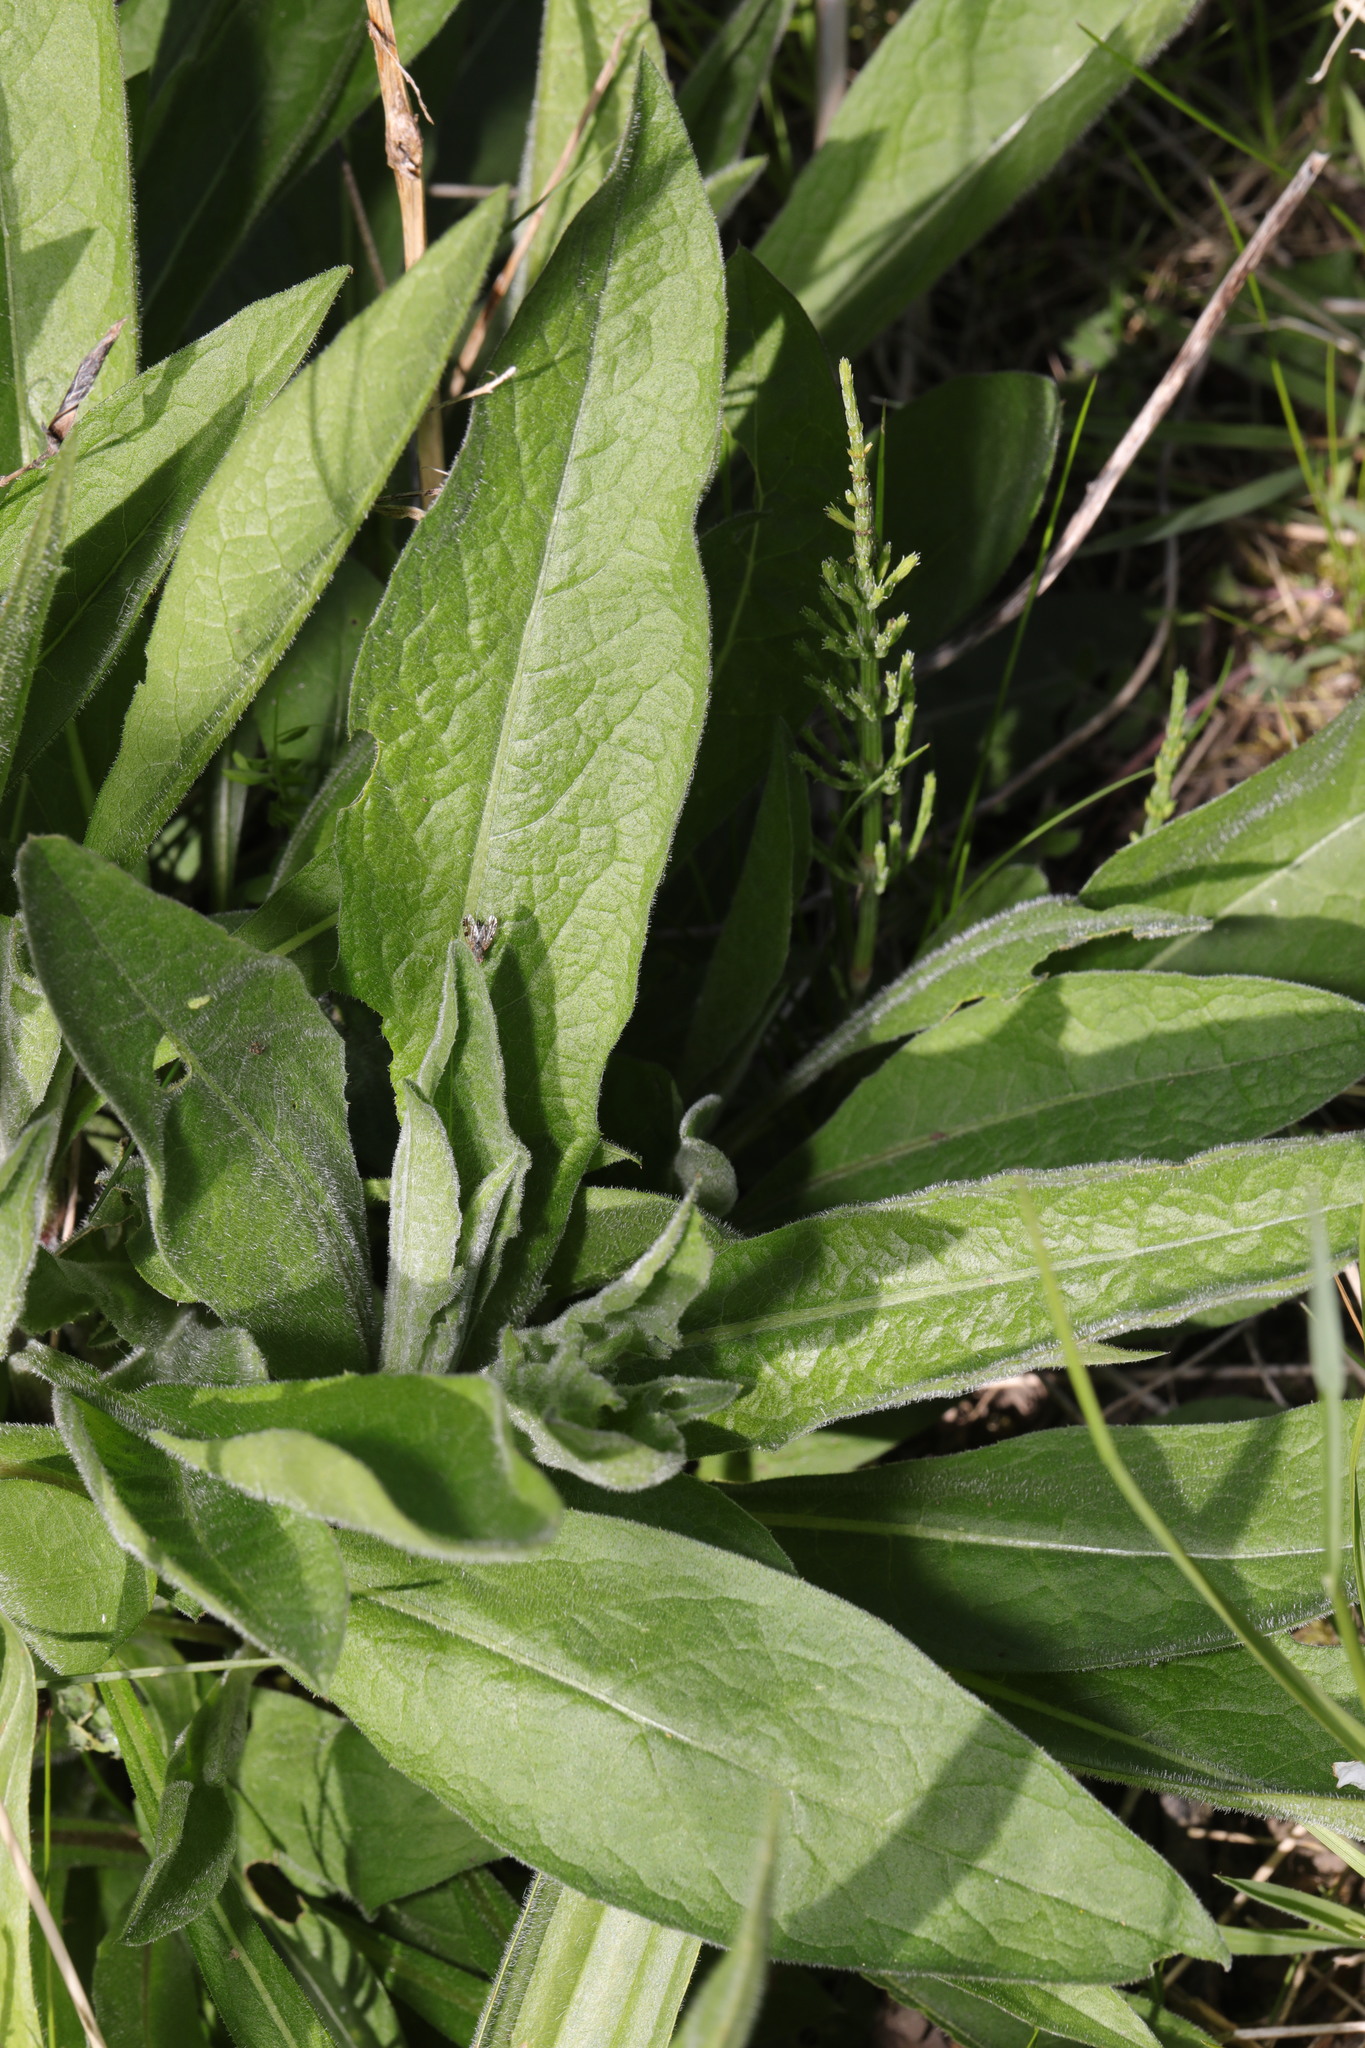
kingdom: Plantae
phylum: Tracheophyta
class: Magnoliopsida
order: Asterales
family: Asteraceae
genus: Centaurea
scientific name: Centaurea nigra
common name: Lesser knapweed
